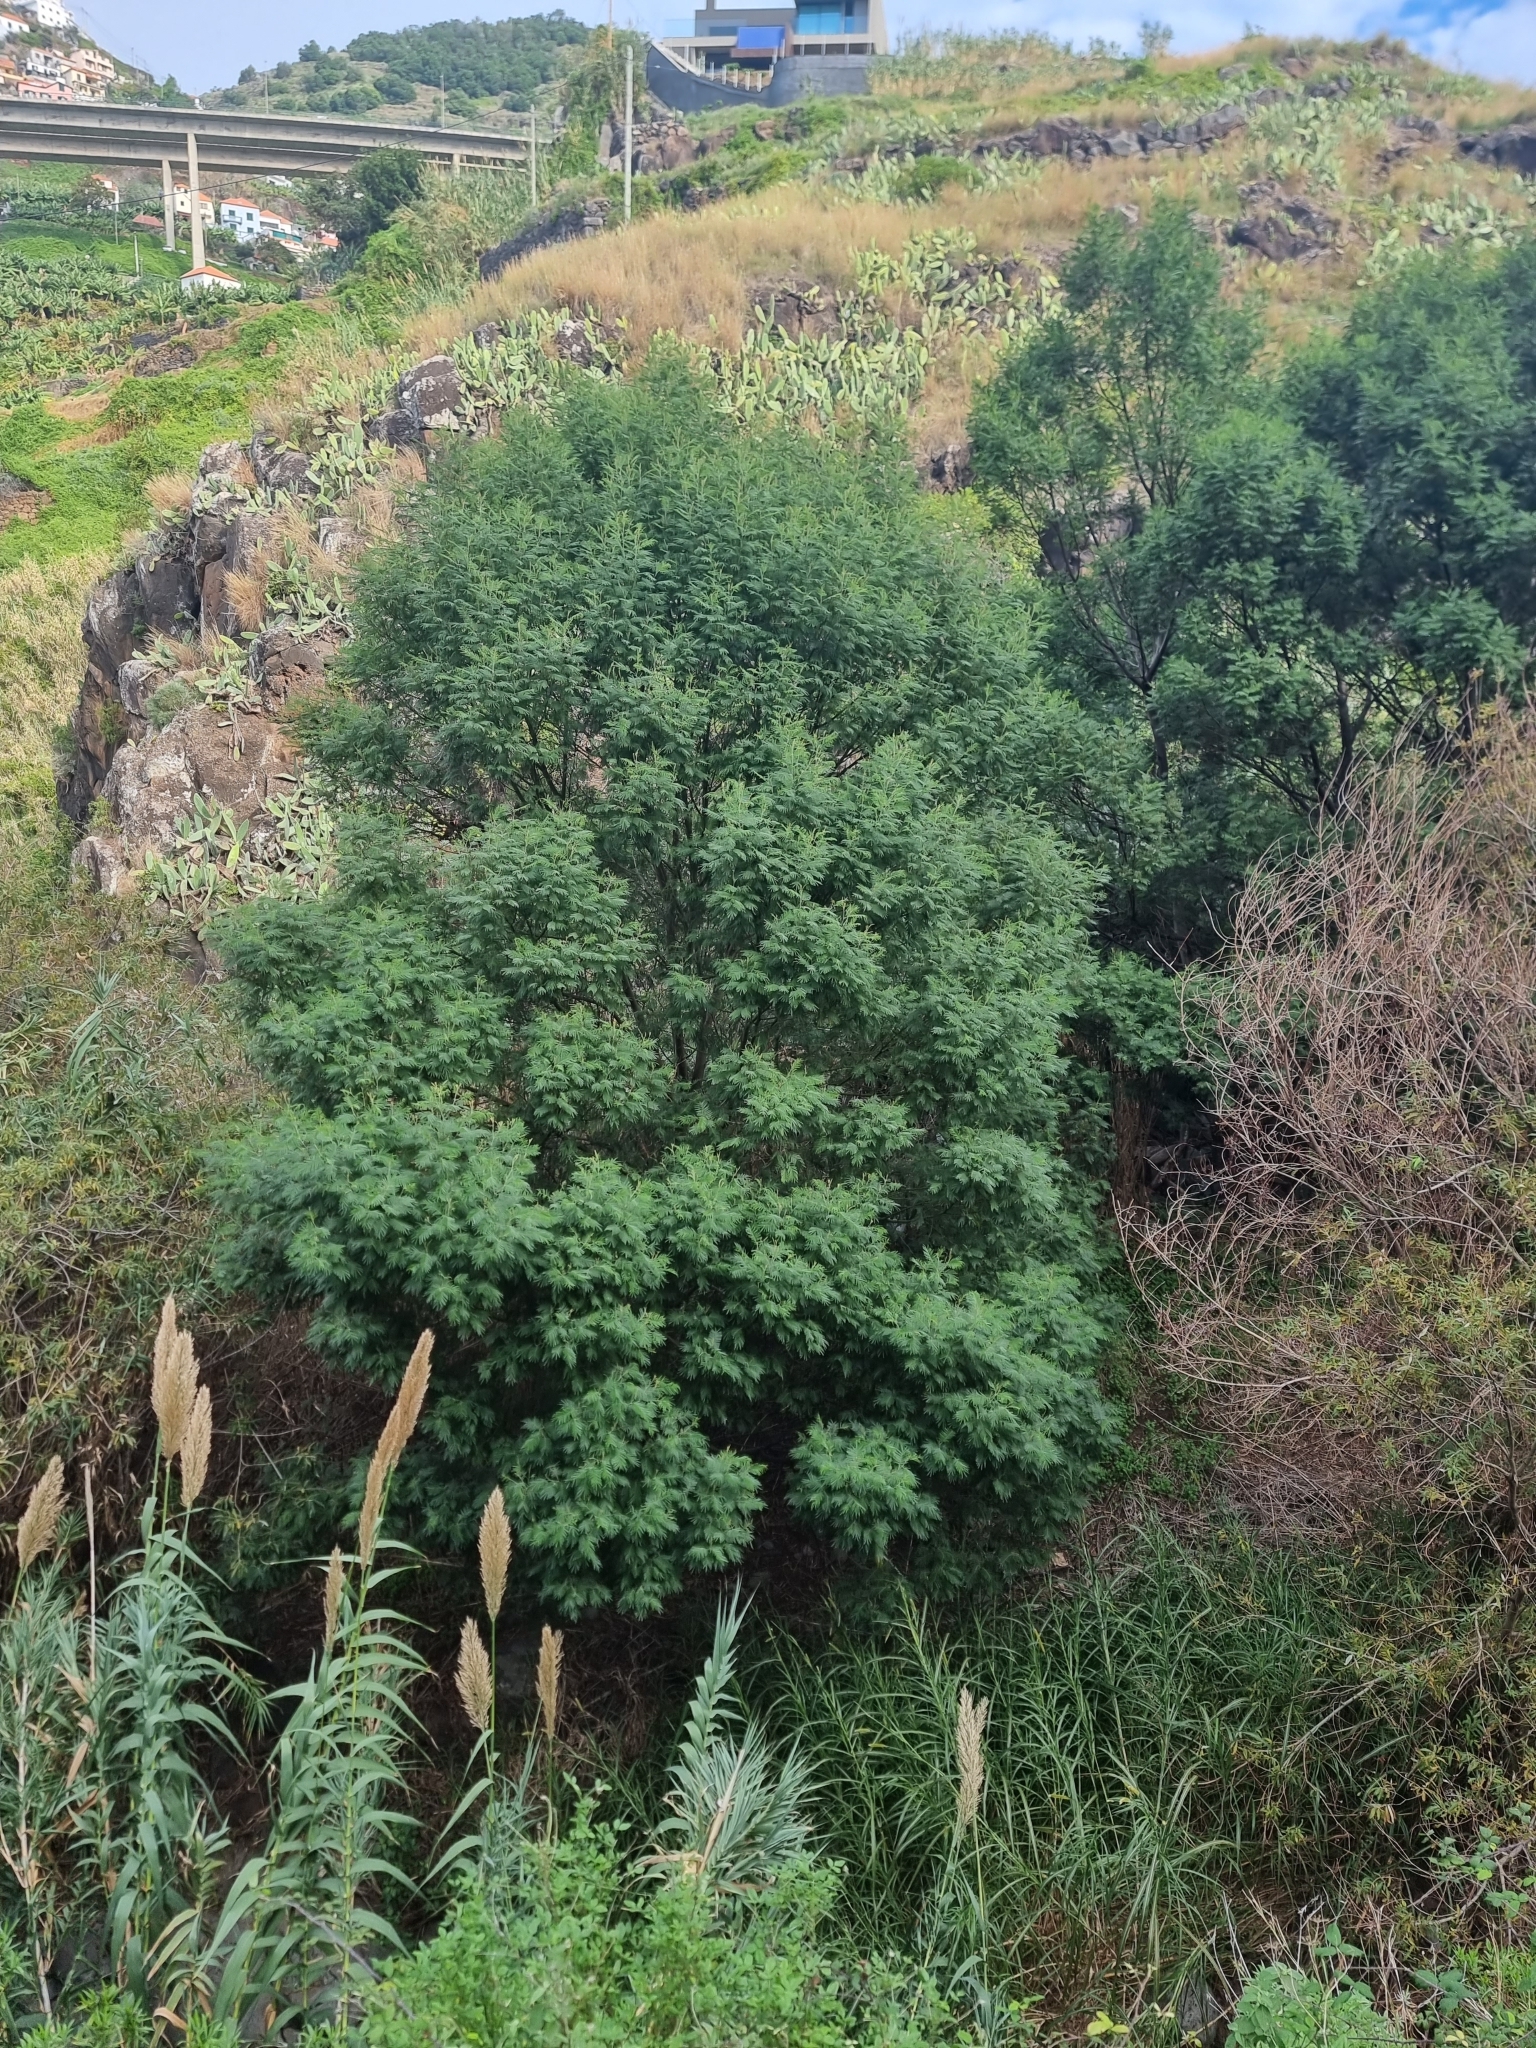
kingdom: Plantae
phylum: Tracheophyta
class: Magnoliopsida
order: Fabales
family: Fabaceae
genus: Acacia
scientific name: Acacia mearnsii
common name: Black wattle
